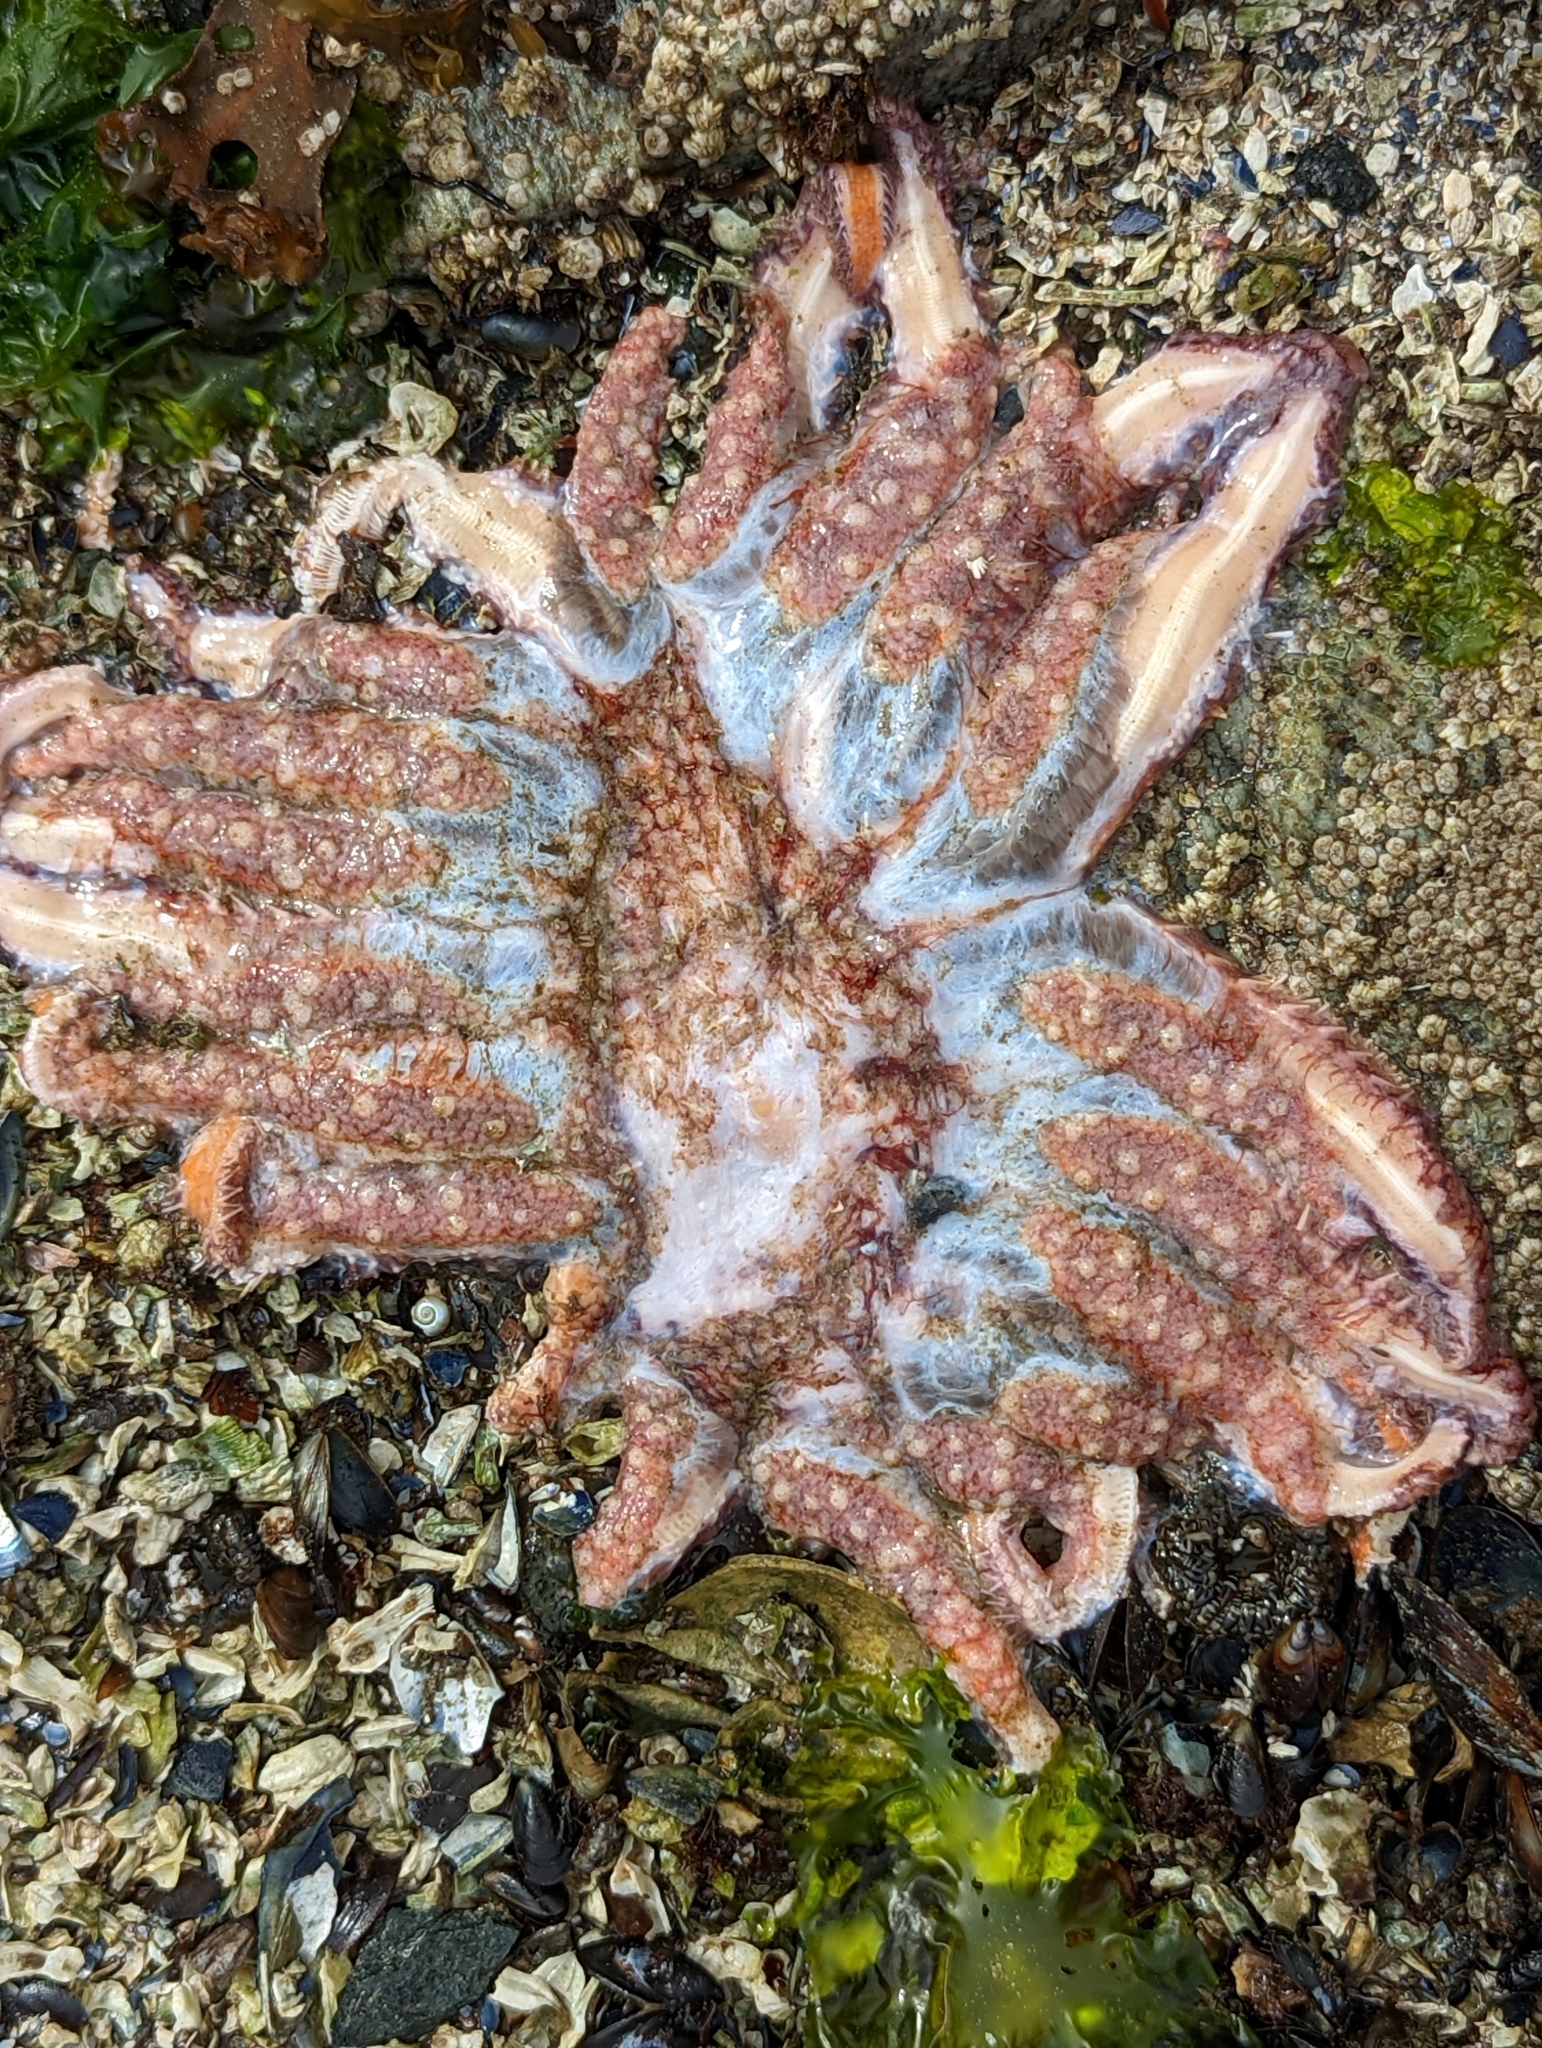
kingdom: Animalia
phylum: Echinodermata
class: Asteroidea
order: Forcipulatida
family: Asteriidae
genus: Pycnopodia
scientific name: Pycnopodia helianthoides
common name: Rag mop
